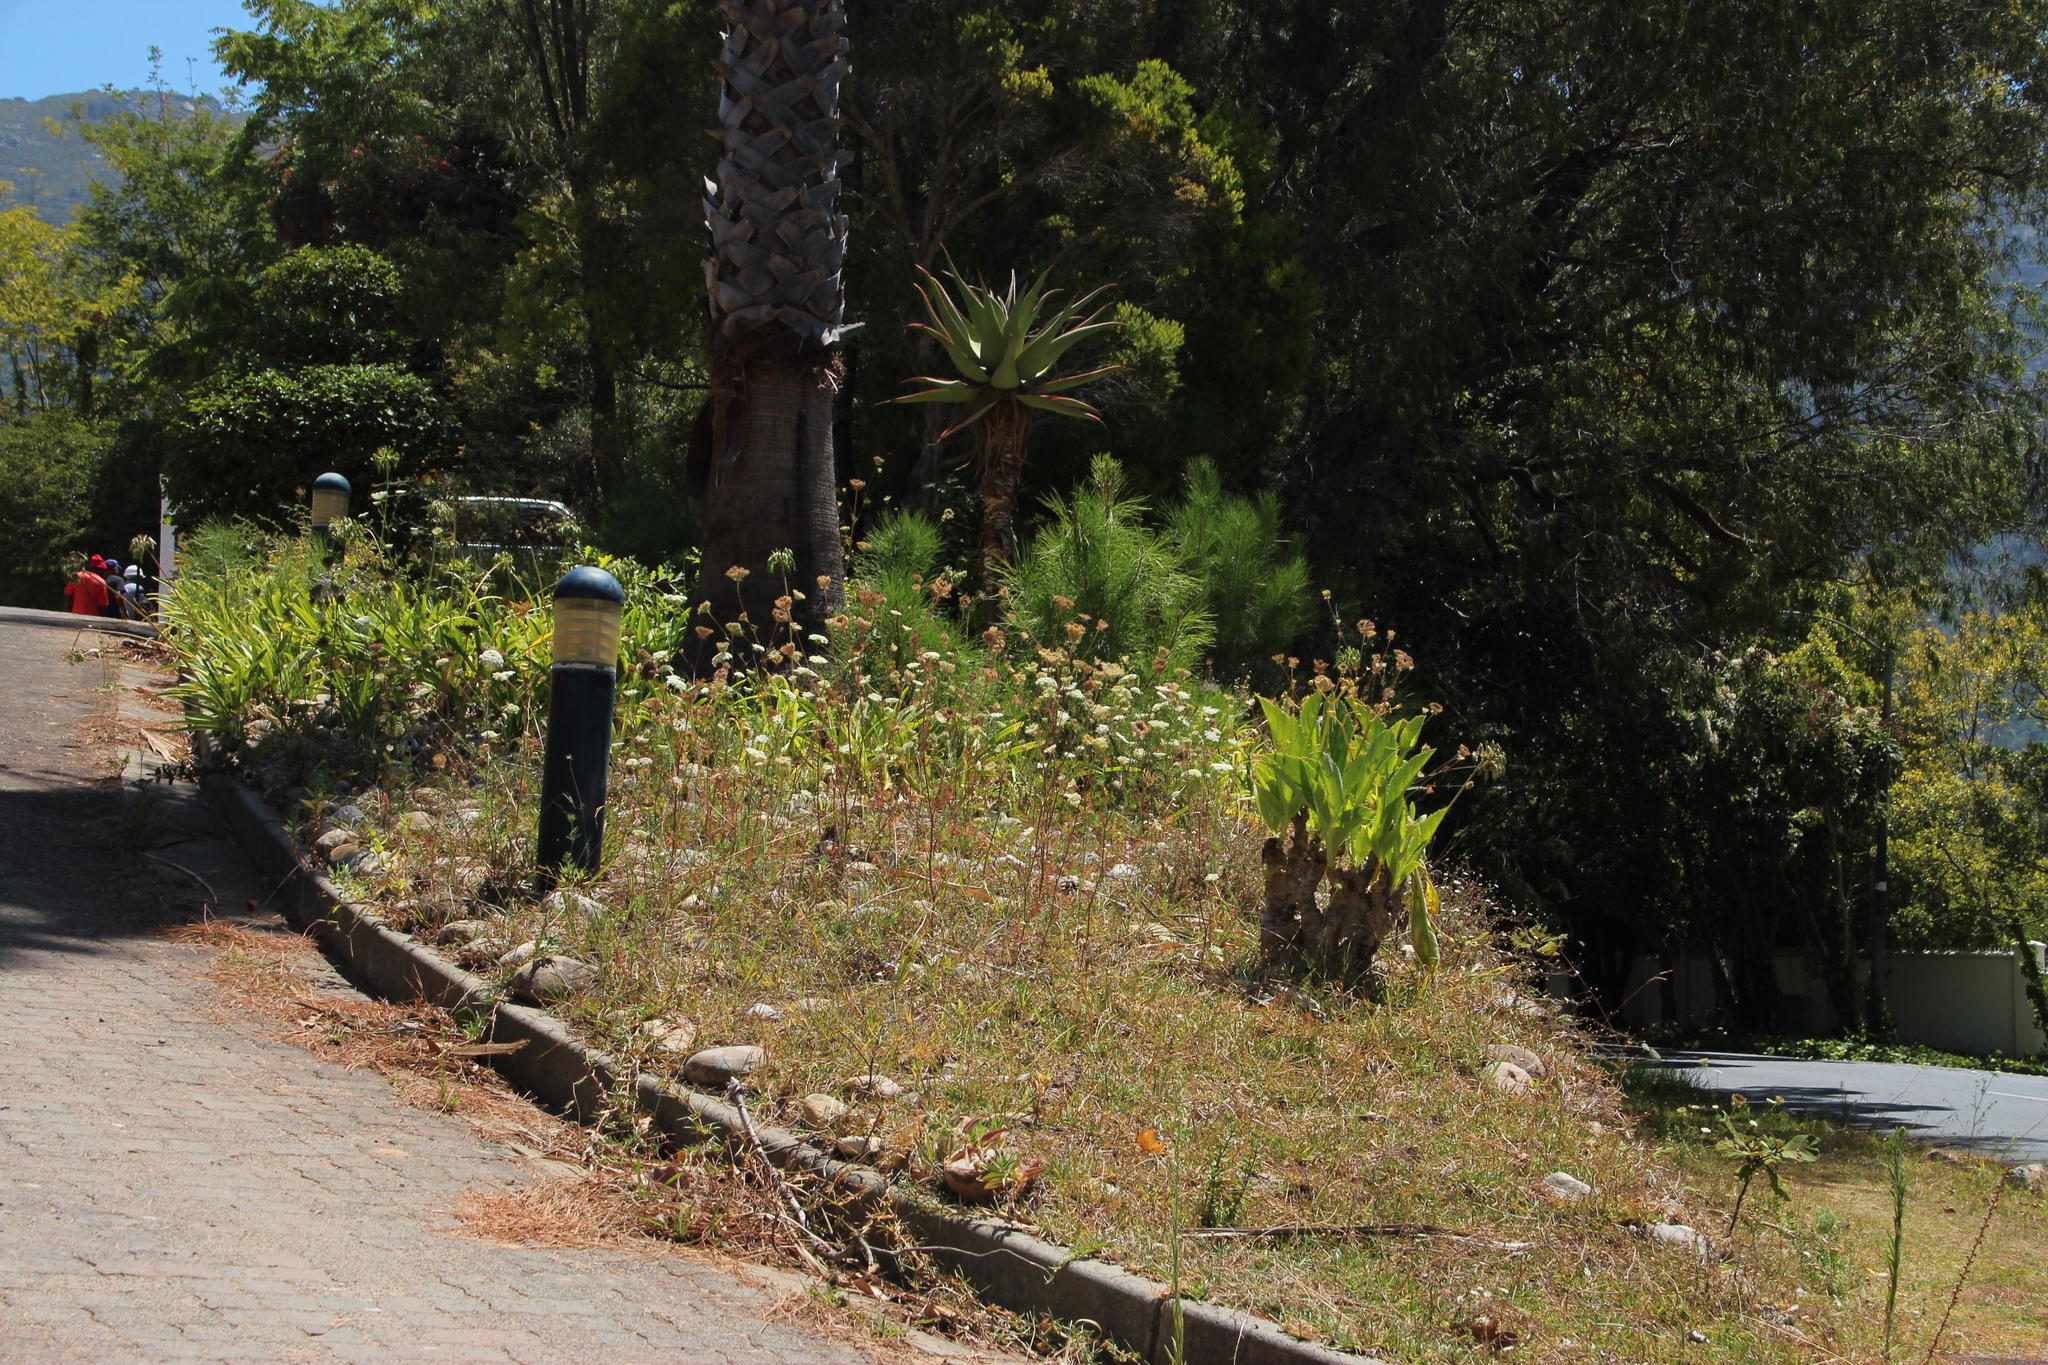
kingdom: Plantae
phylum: Tracheophyta
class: Magnoliopsida
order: Apiales
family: Apiaceae
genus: Daucus
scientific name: Daucus carota
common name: Wild carrot
